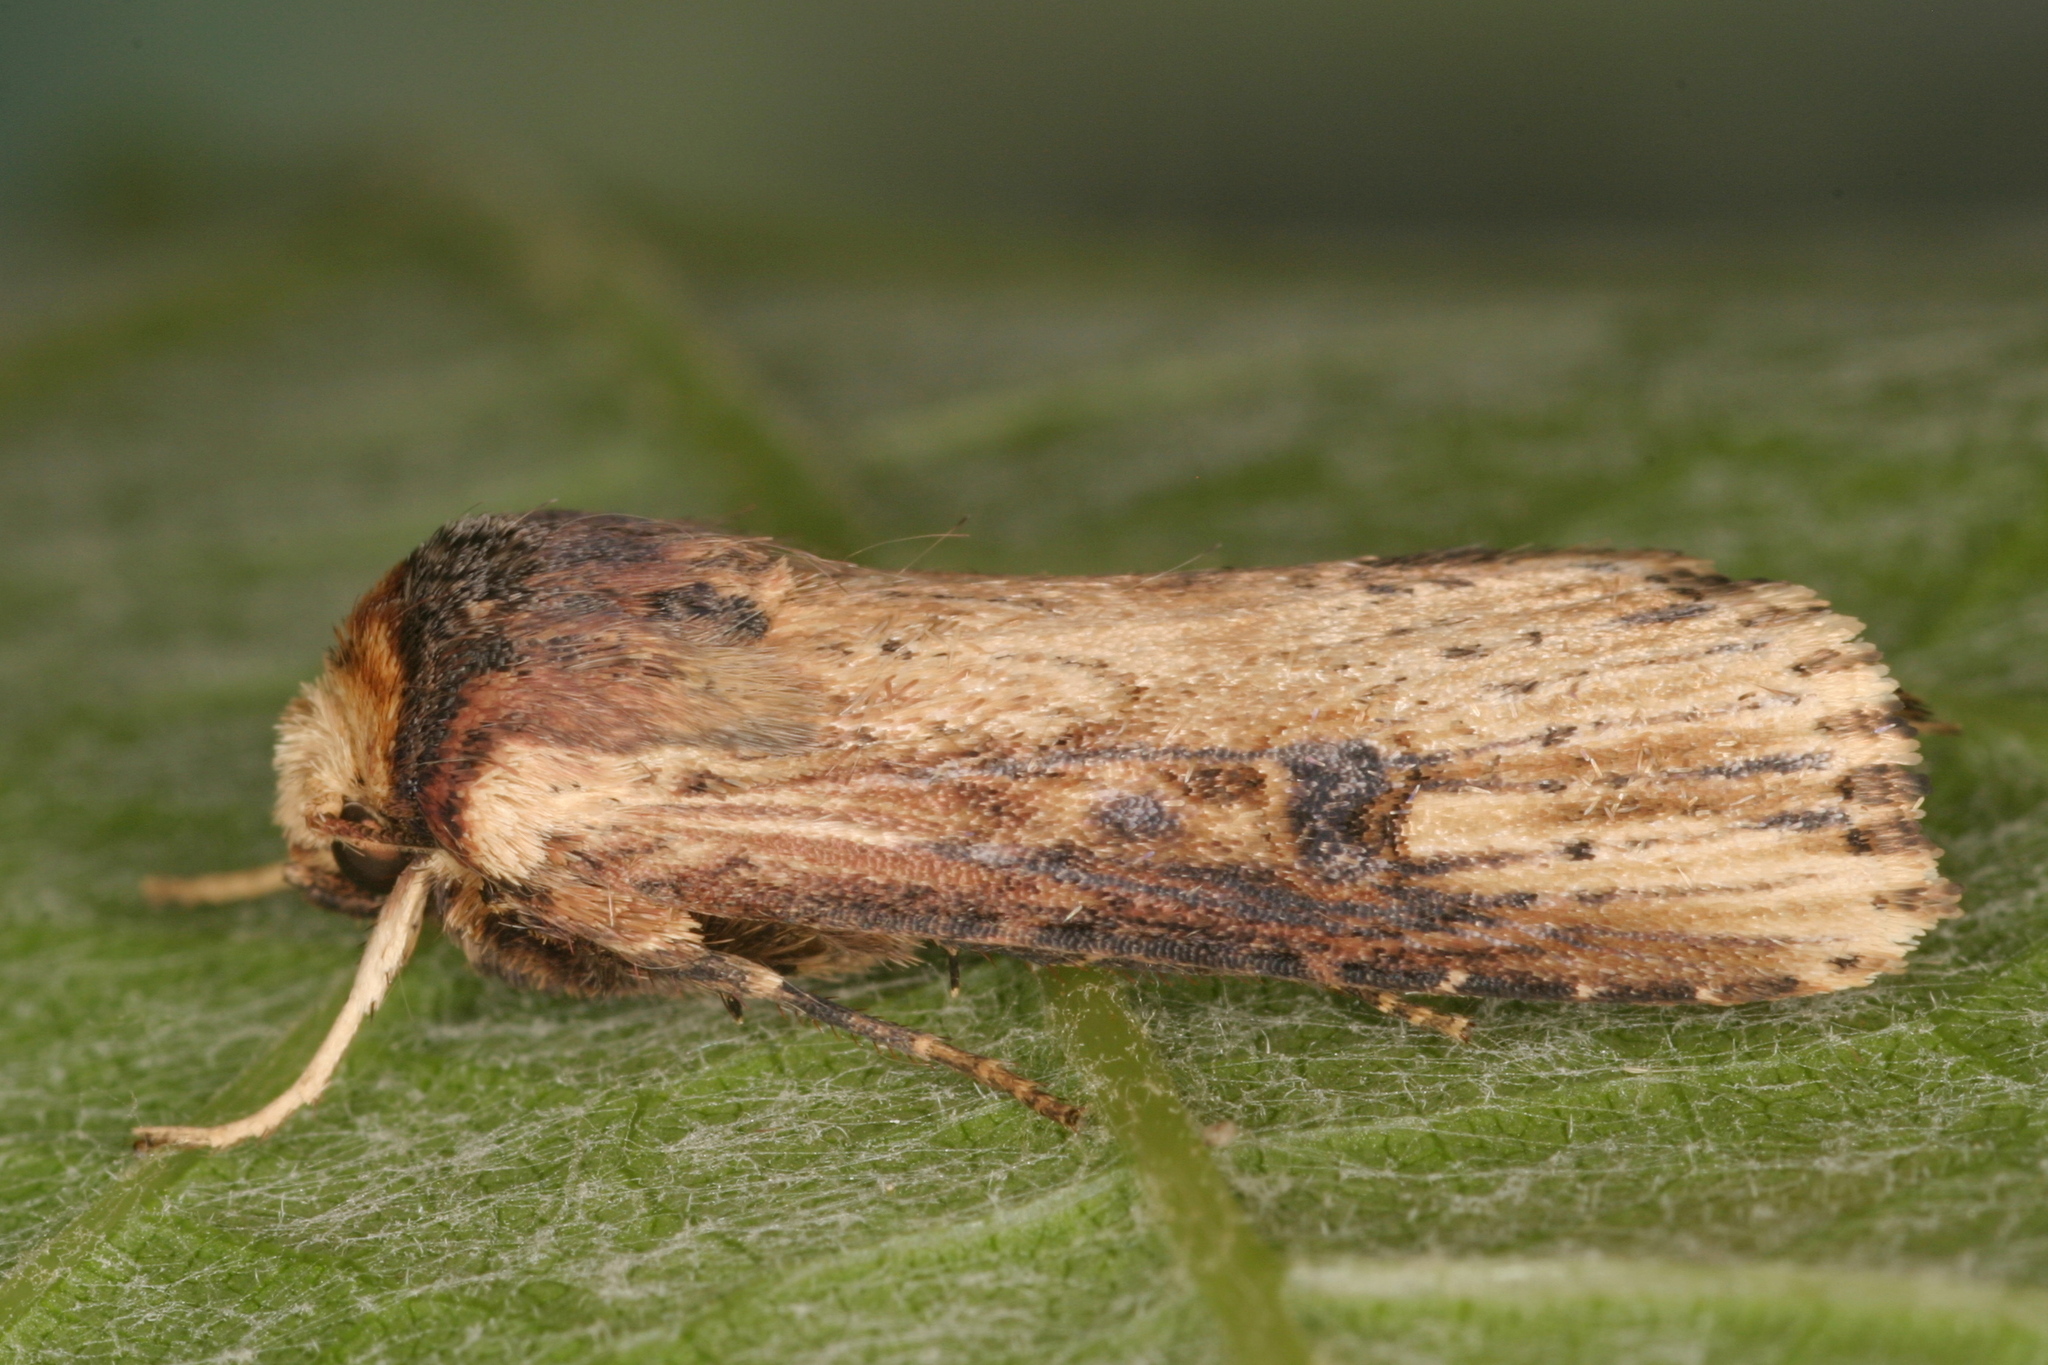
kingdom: Animalia
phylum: Arthropoda
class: Insecta
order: Lepidoptera
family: Noctuidae
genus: Axylia
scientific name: Axylia putris
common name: Flame
